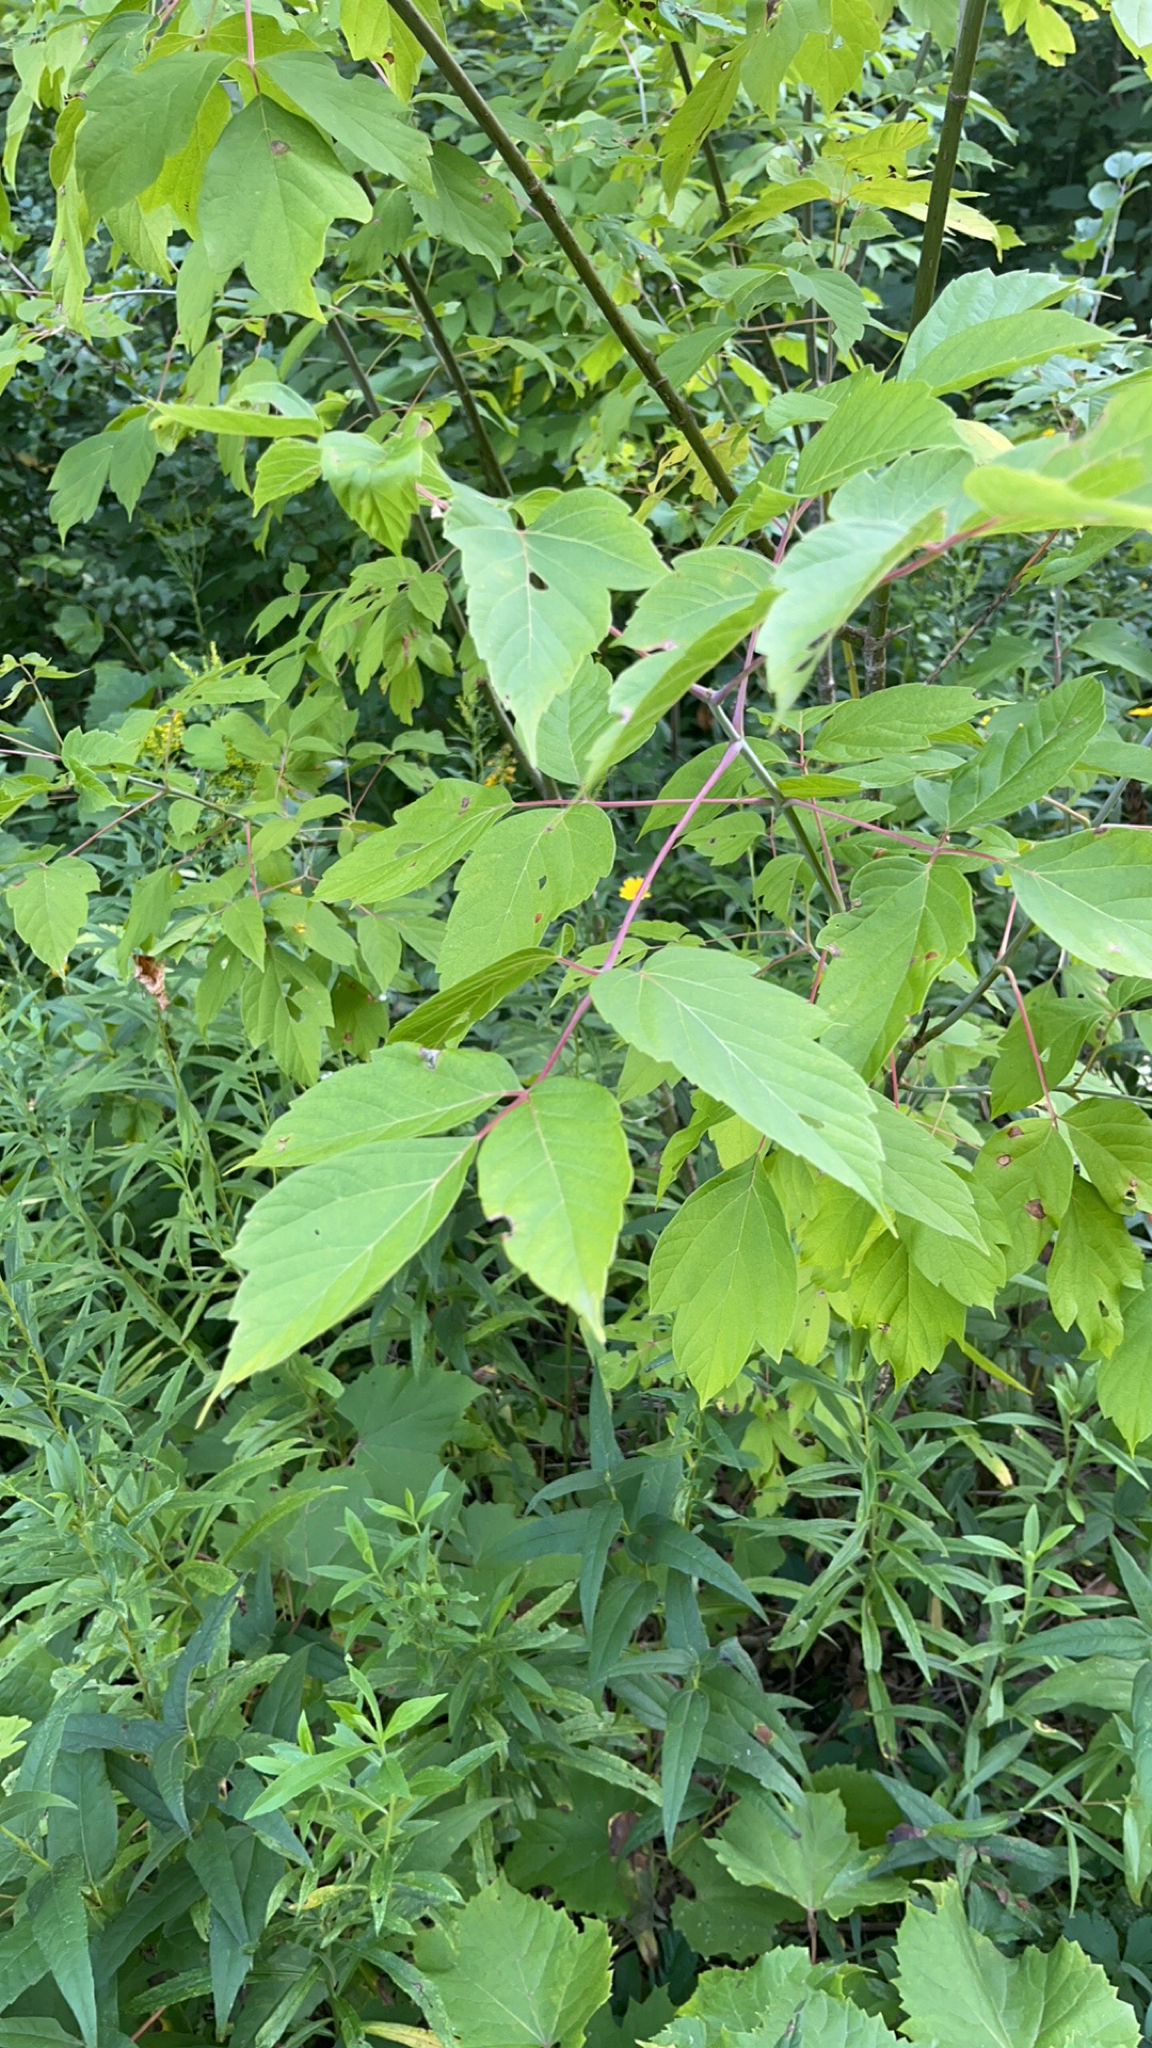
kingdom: Plantae
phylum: Tracheophyta
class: Magnoliopsida
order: Sapindales
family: Sapindaceae
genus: Acer
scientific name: Acer negundo
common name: Ashleaf maple
